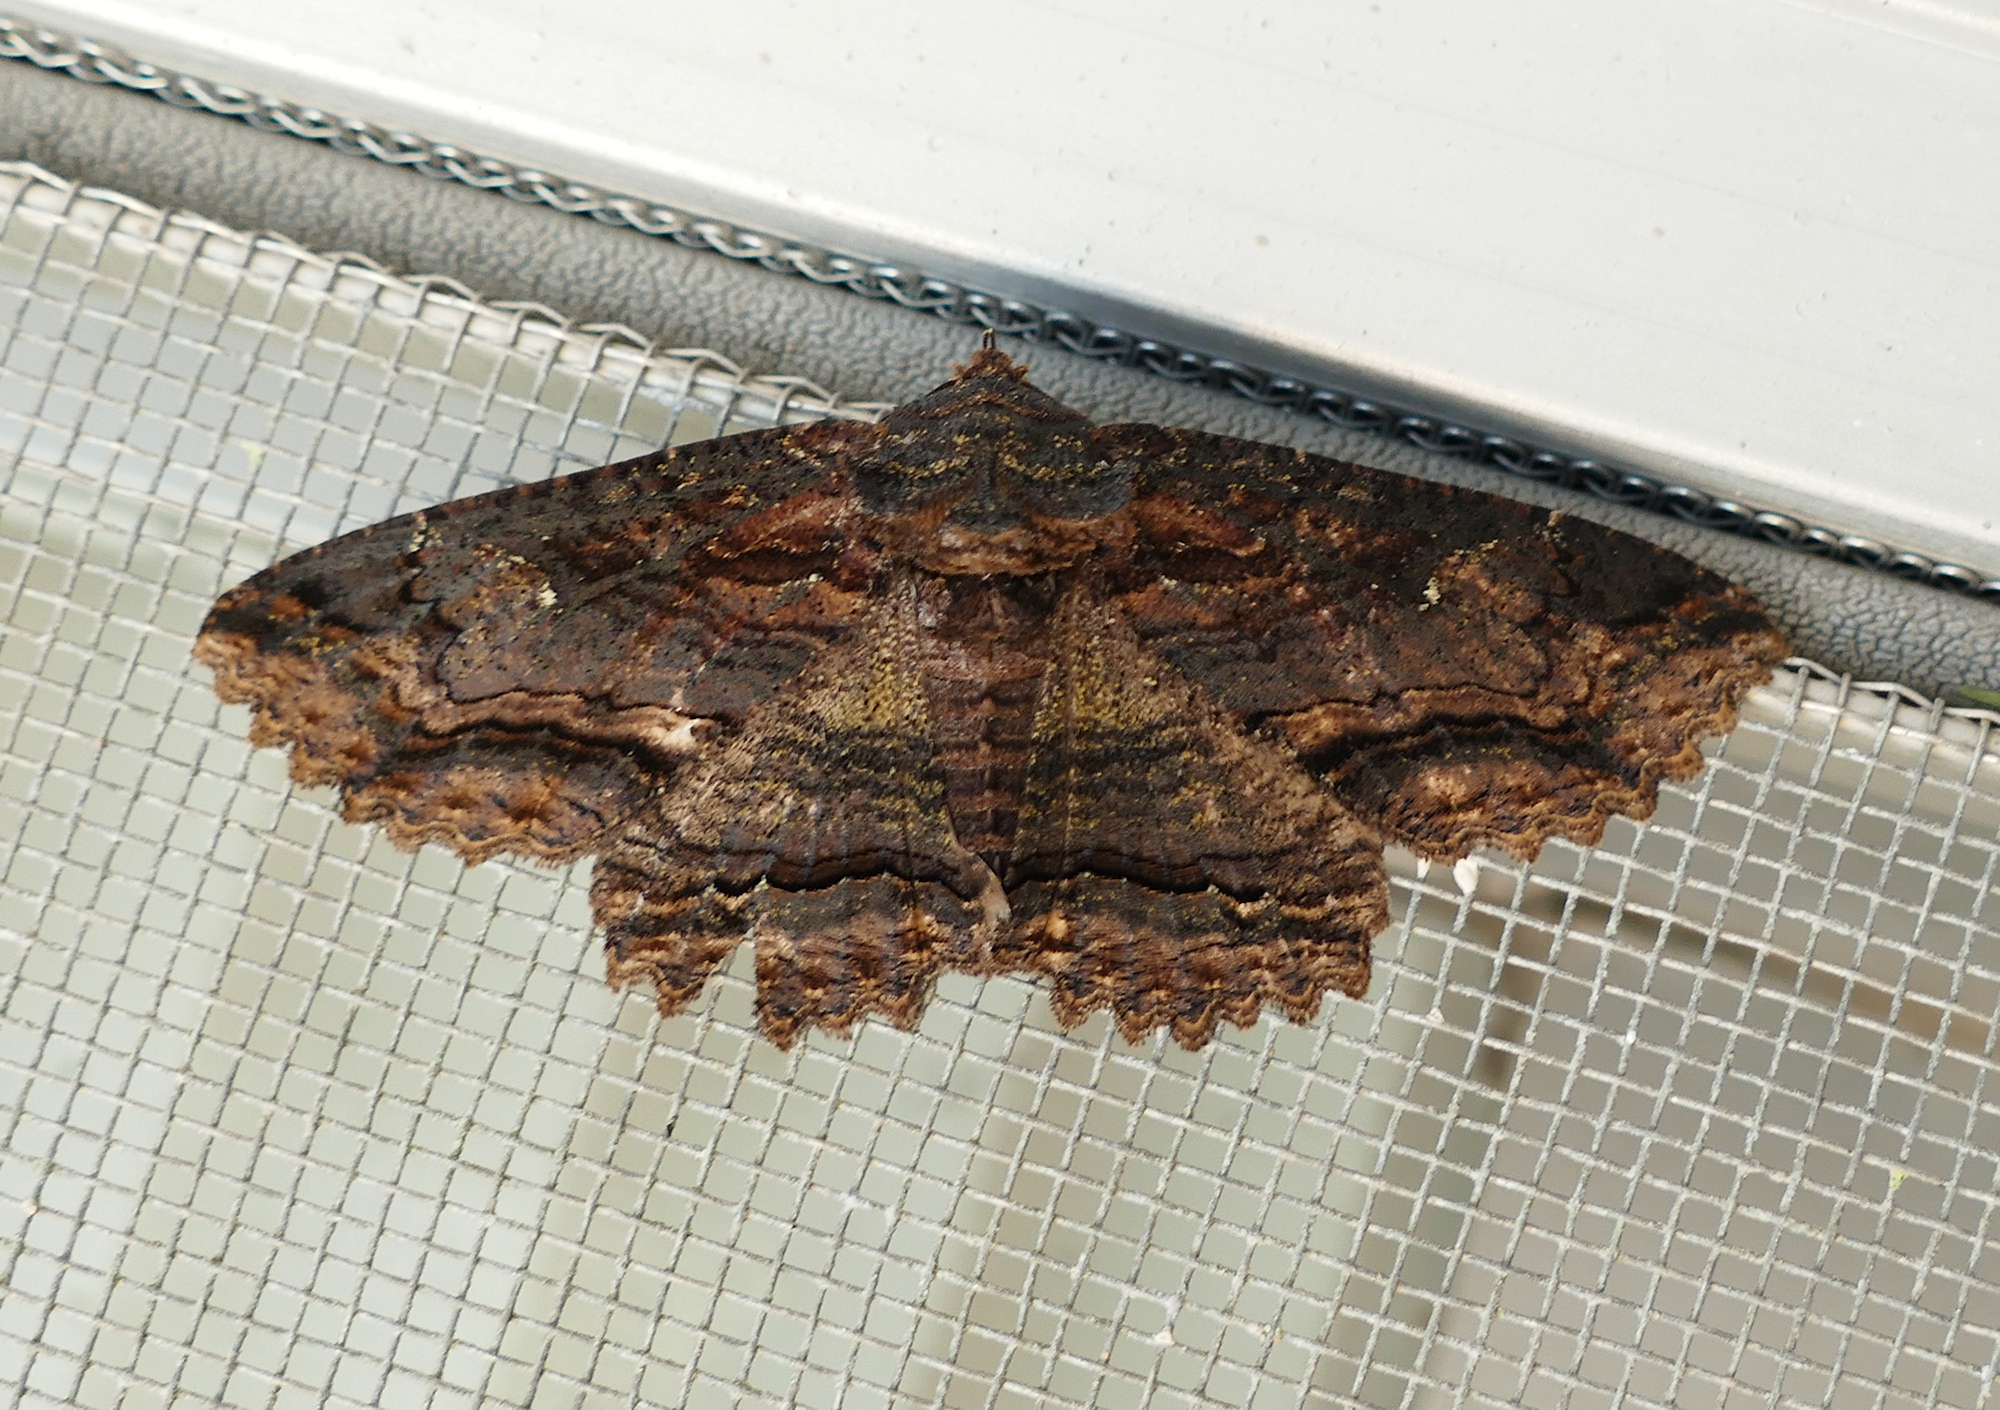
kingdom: Animalia
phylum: Arthropoda
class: Insecta
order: Lepidoptera
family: Erebidae
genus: Zale
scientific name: Zale lunata
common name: Lunate zale moth
